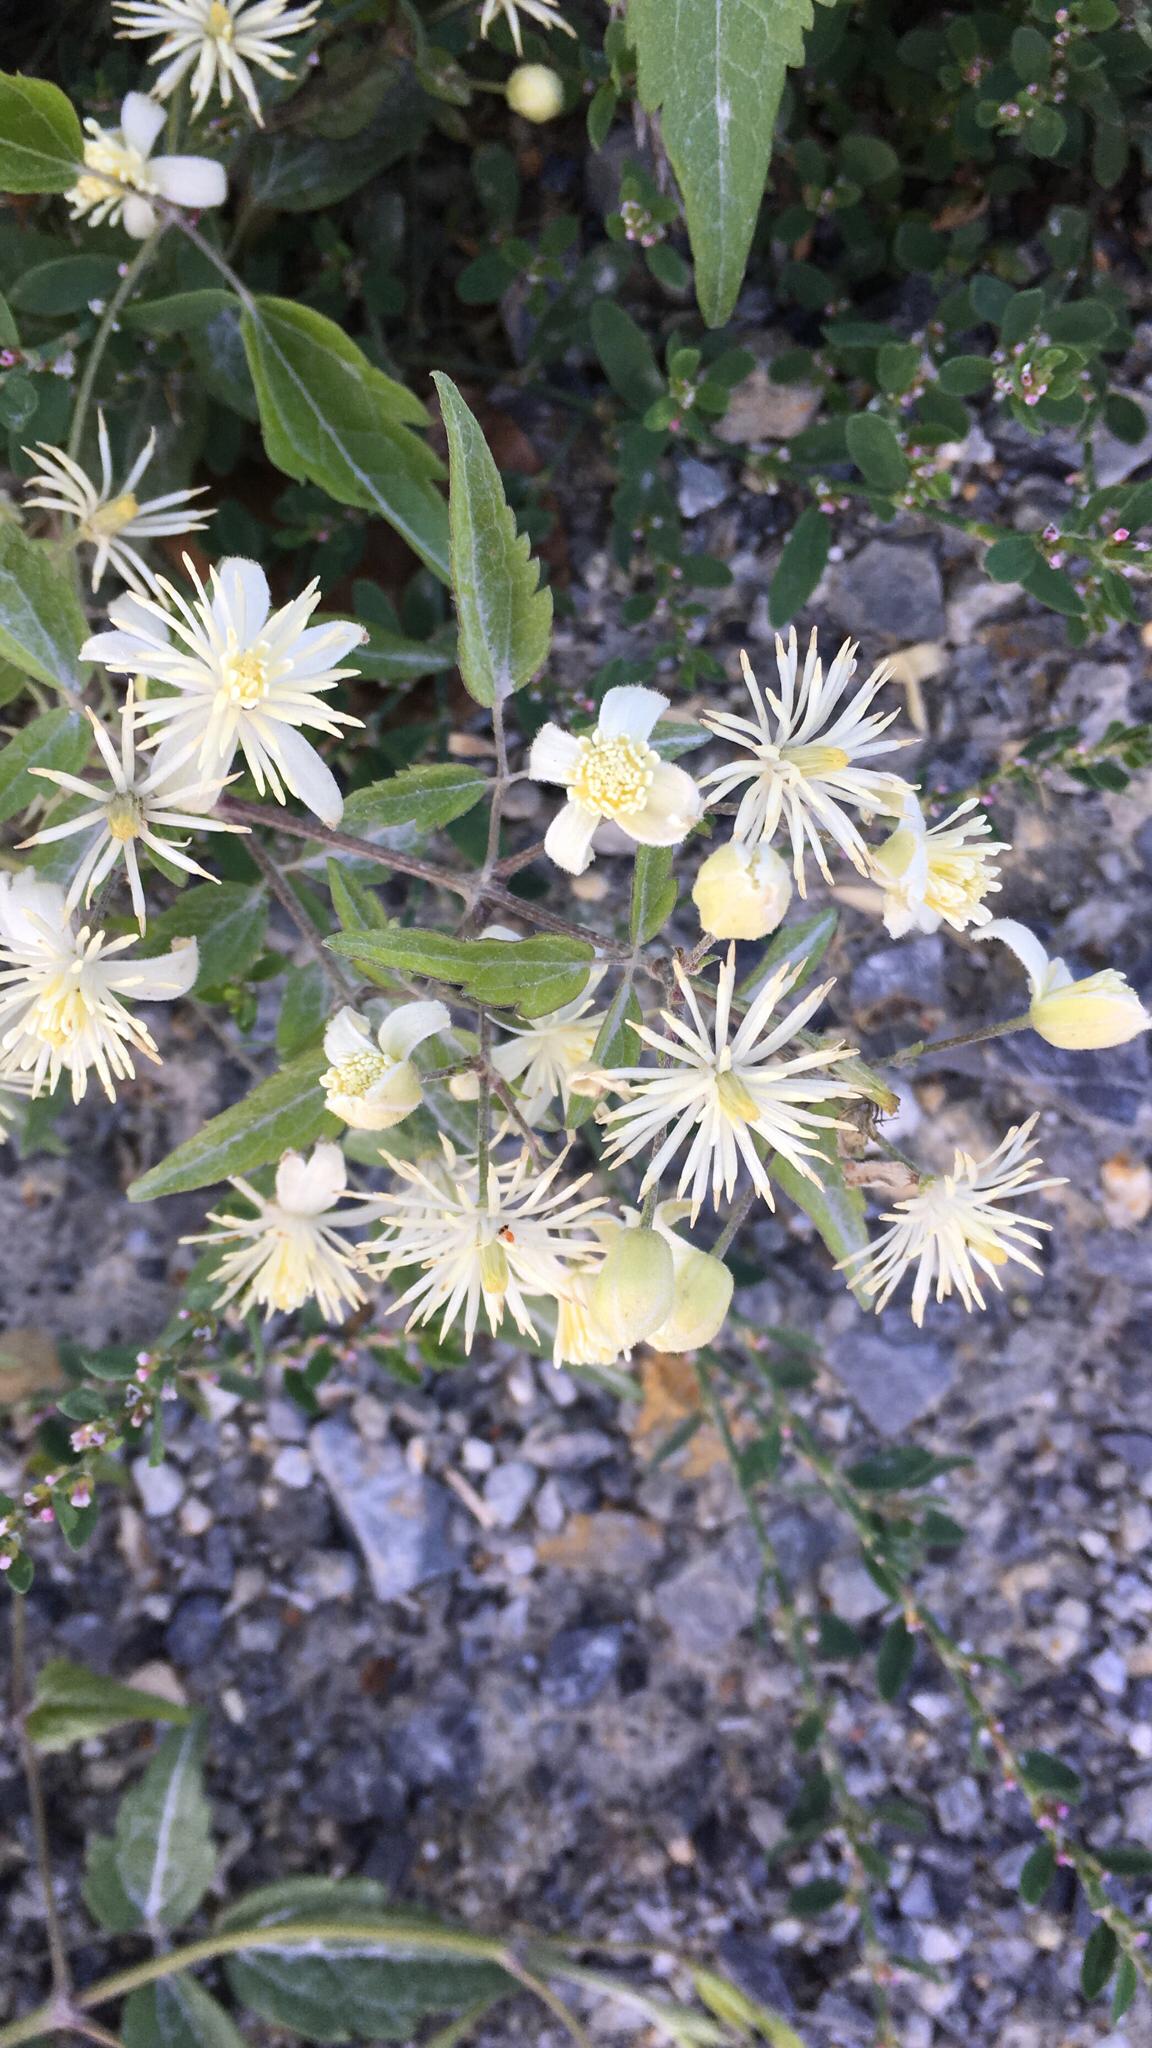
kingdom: Plantae
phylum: Tracheophyta
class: Magnoliopsida
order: Ranunculales
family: Ranunculaceae
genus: Clematis
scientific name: Clematis vitalba
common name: Evergreen clematis
